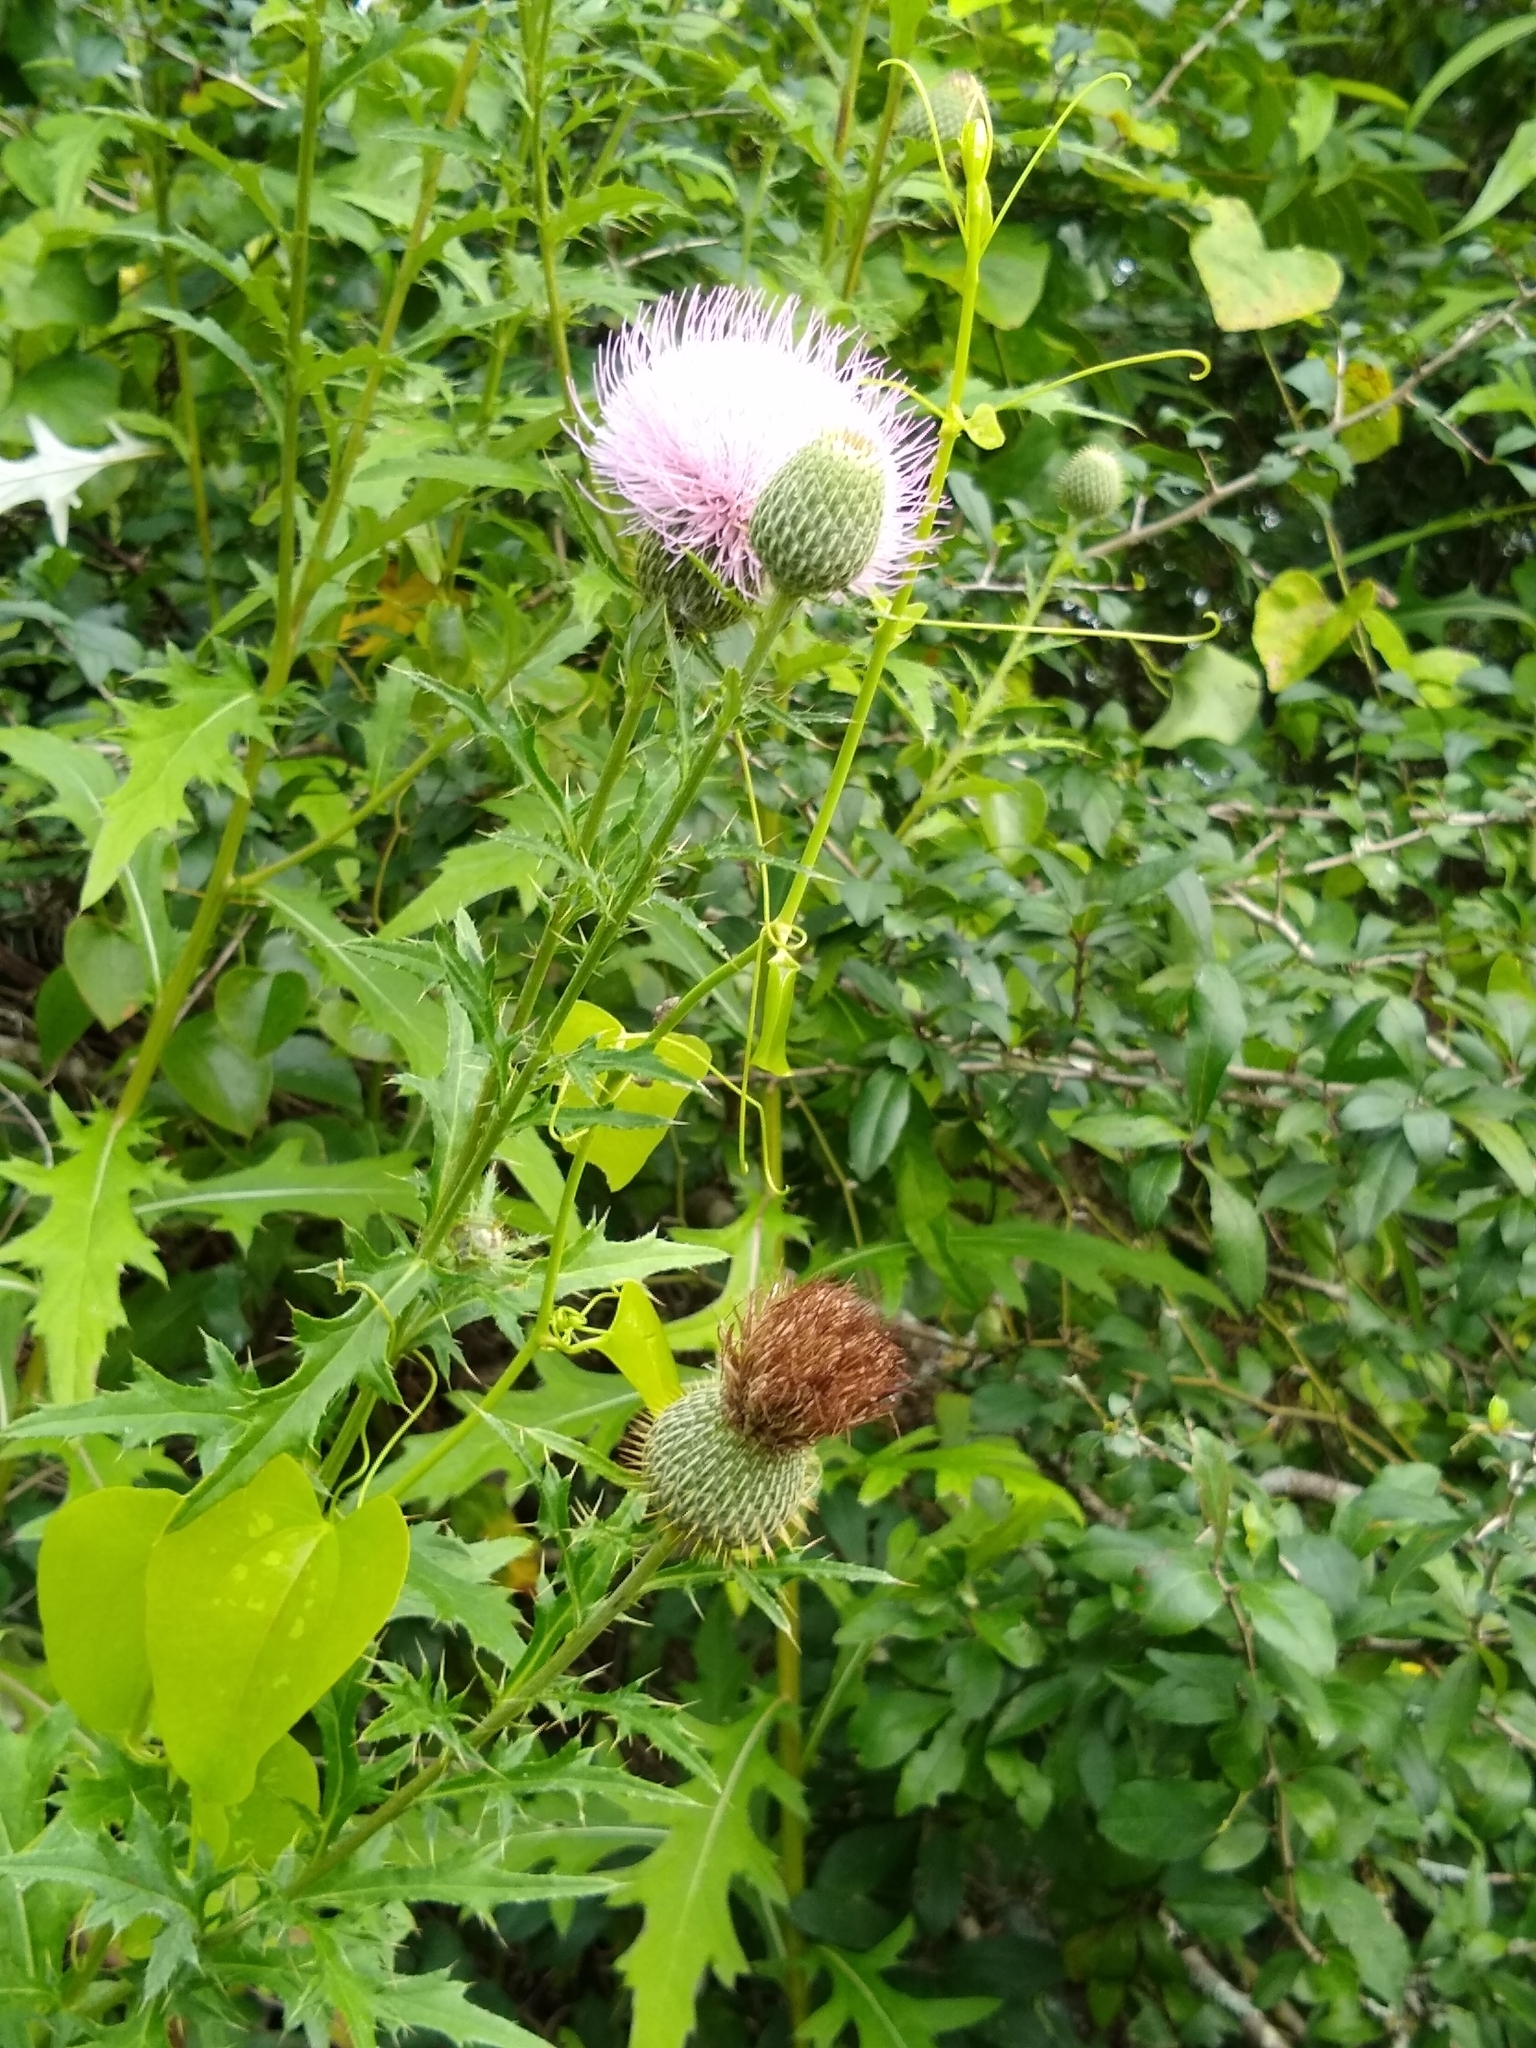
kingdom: Plantae
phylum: Tracheophyta
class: Magnoliopsida
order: Asterales
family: Asteraceae
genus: Cirsium
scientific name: Cirsium texanum
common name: Texas purple thistle
